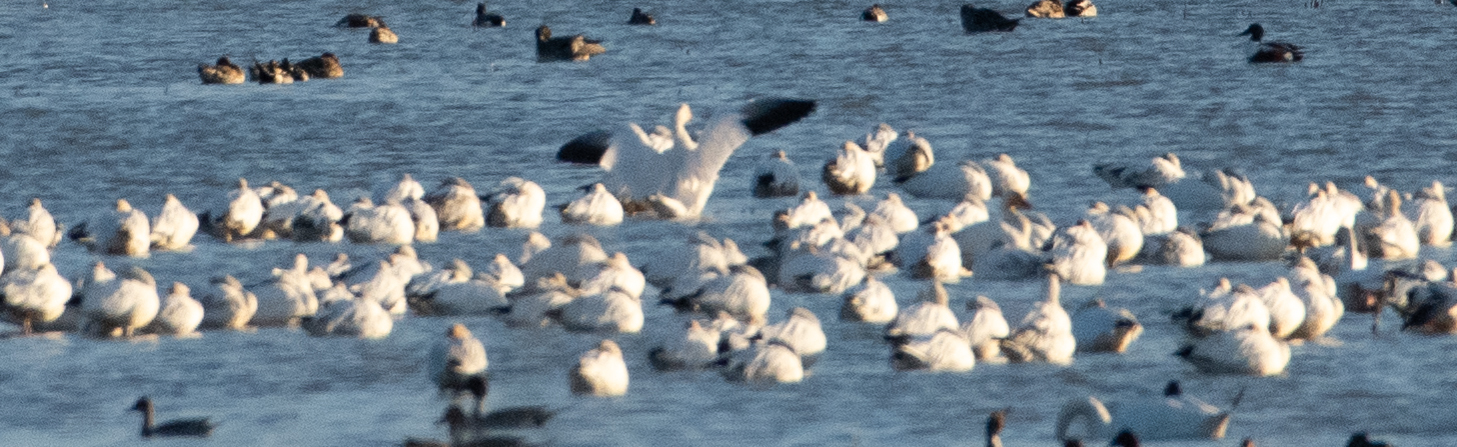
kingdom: Animalia
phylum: Chordata
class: Aves
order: Anseriformes
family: Anatidae
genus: Anser
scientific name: Anser caerulescens
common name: Snow goose
